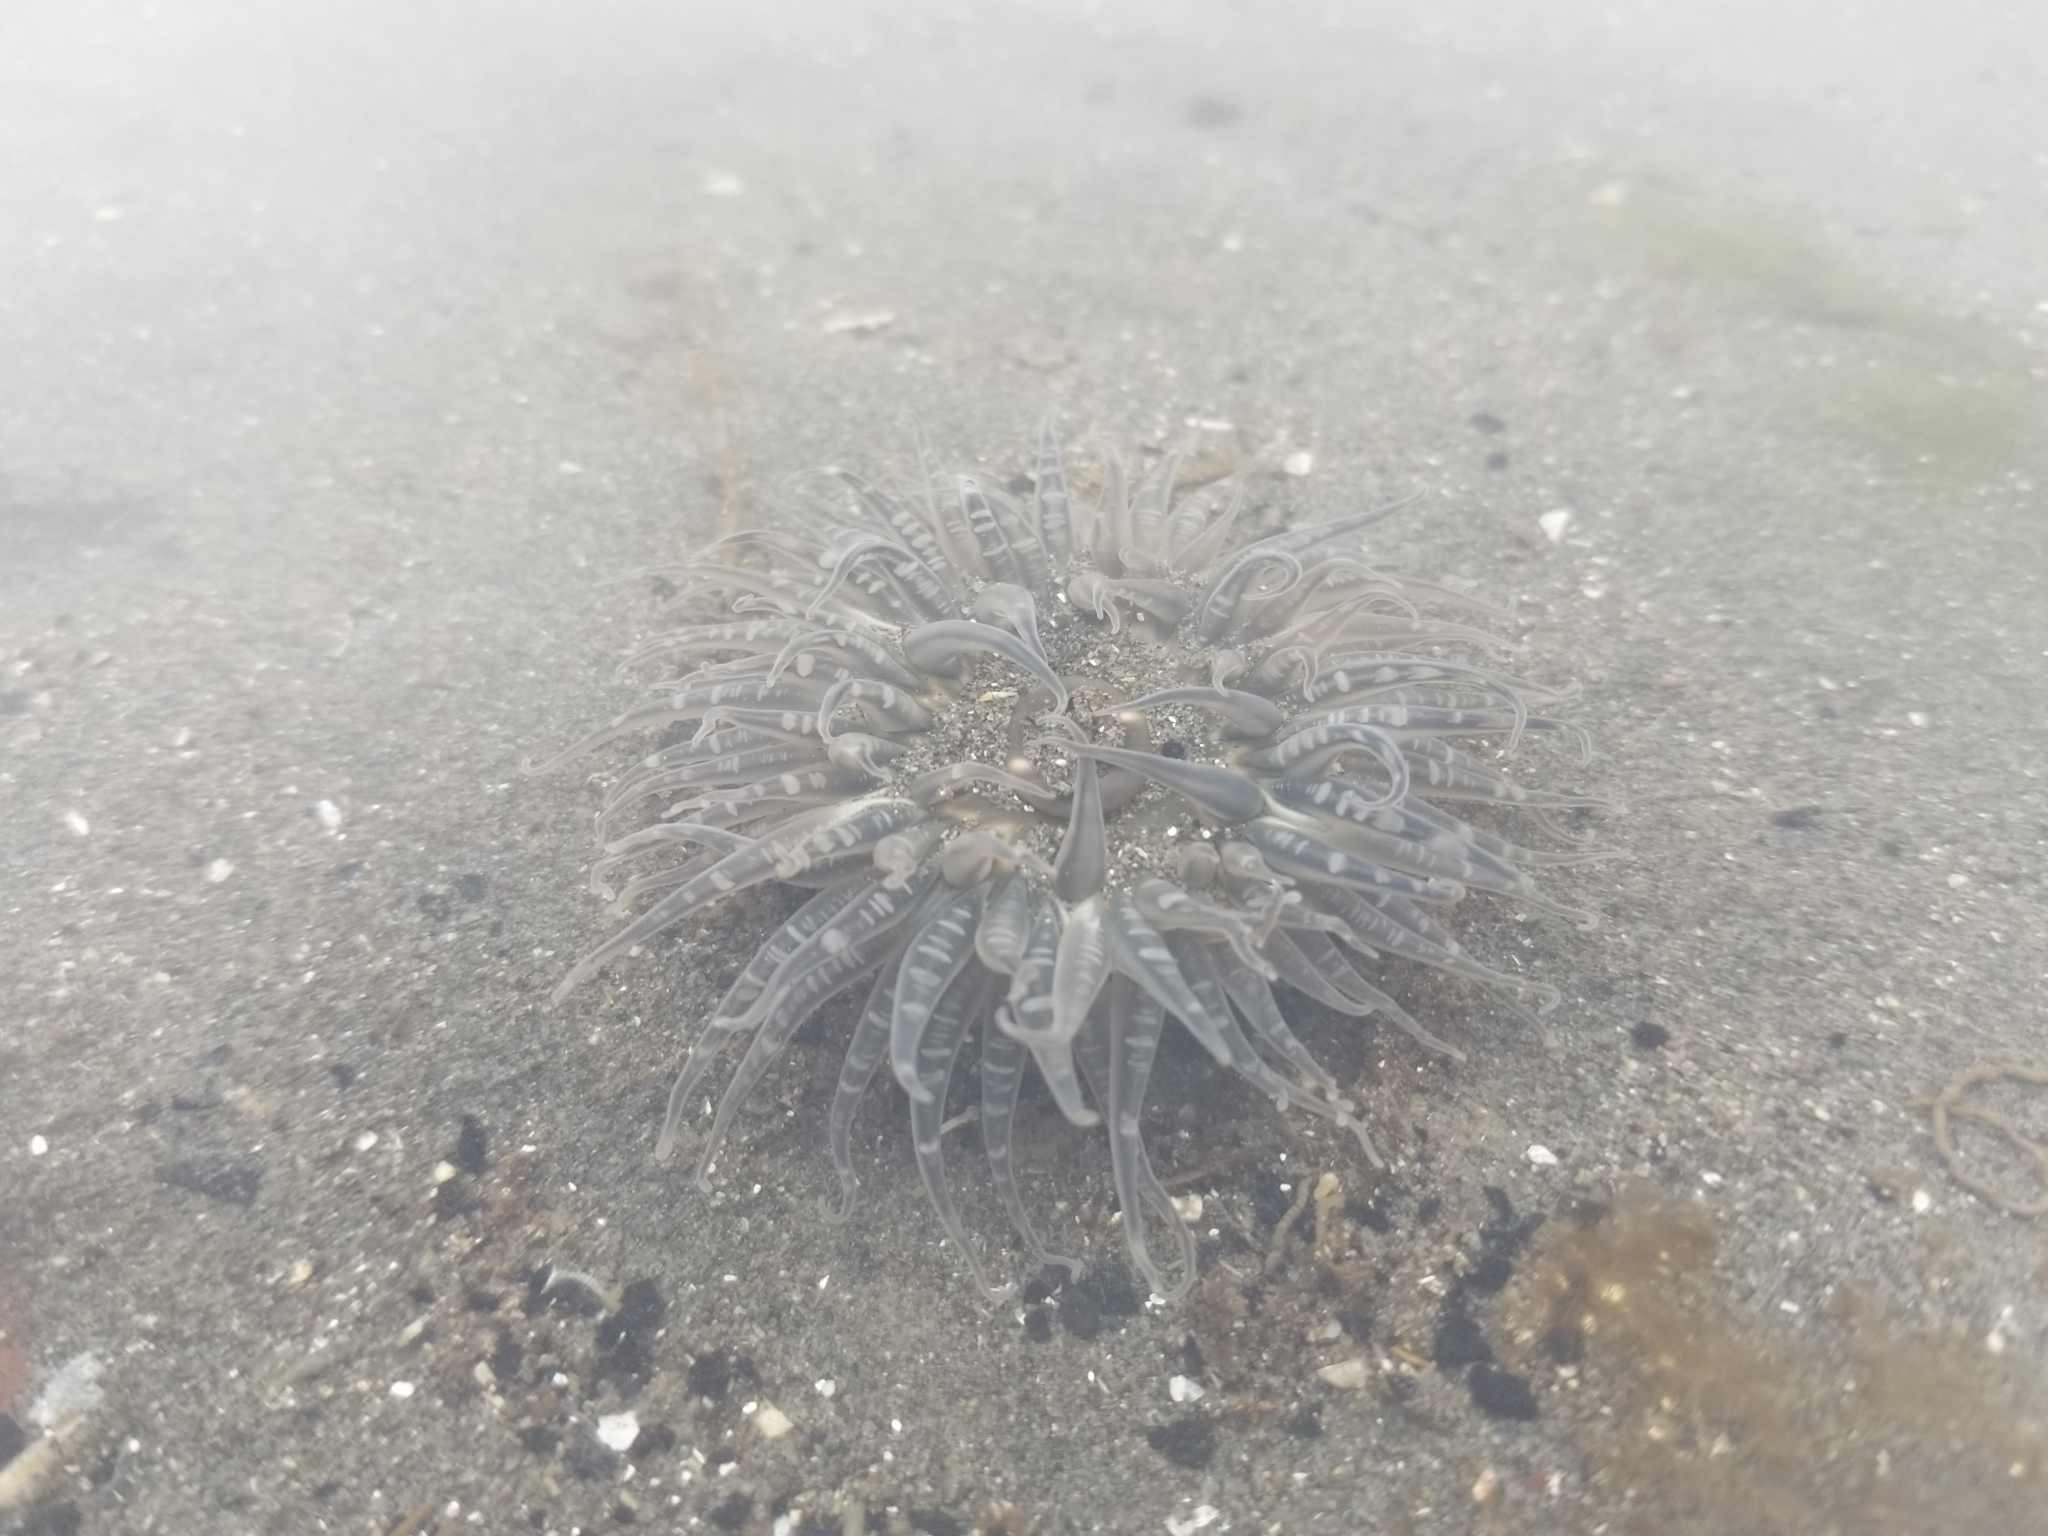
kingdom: Animalia
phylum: Cnidaria
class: Anthozoa
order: Actiniaria
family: Actiniidae
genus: Anthopleura
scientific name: Anthopleura artemisia
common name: Buried sea anemone
